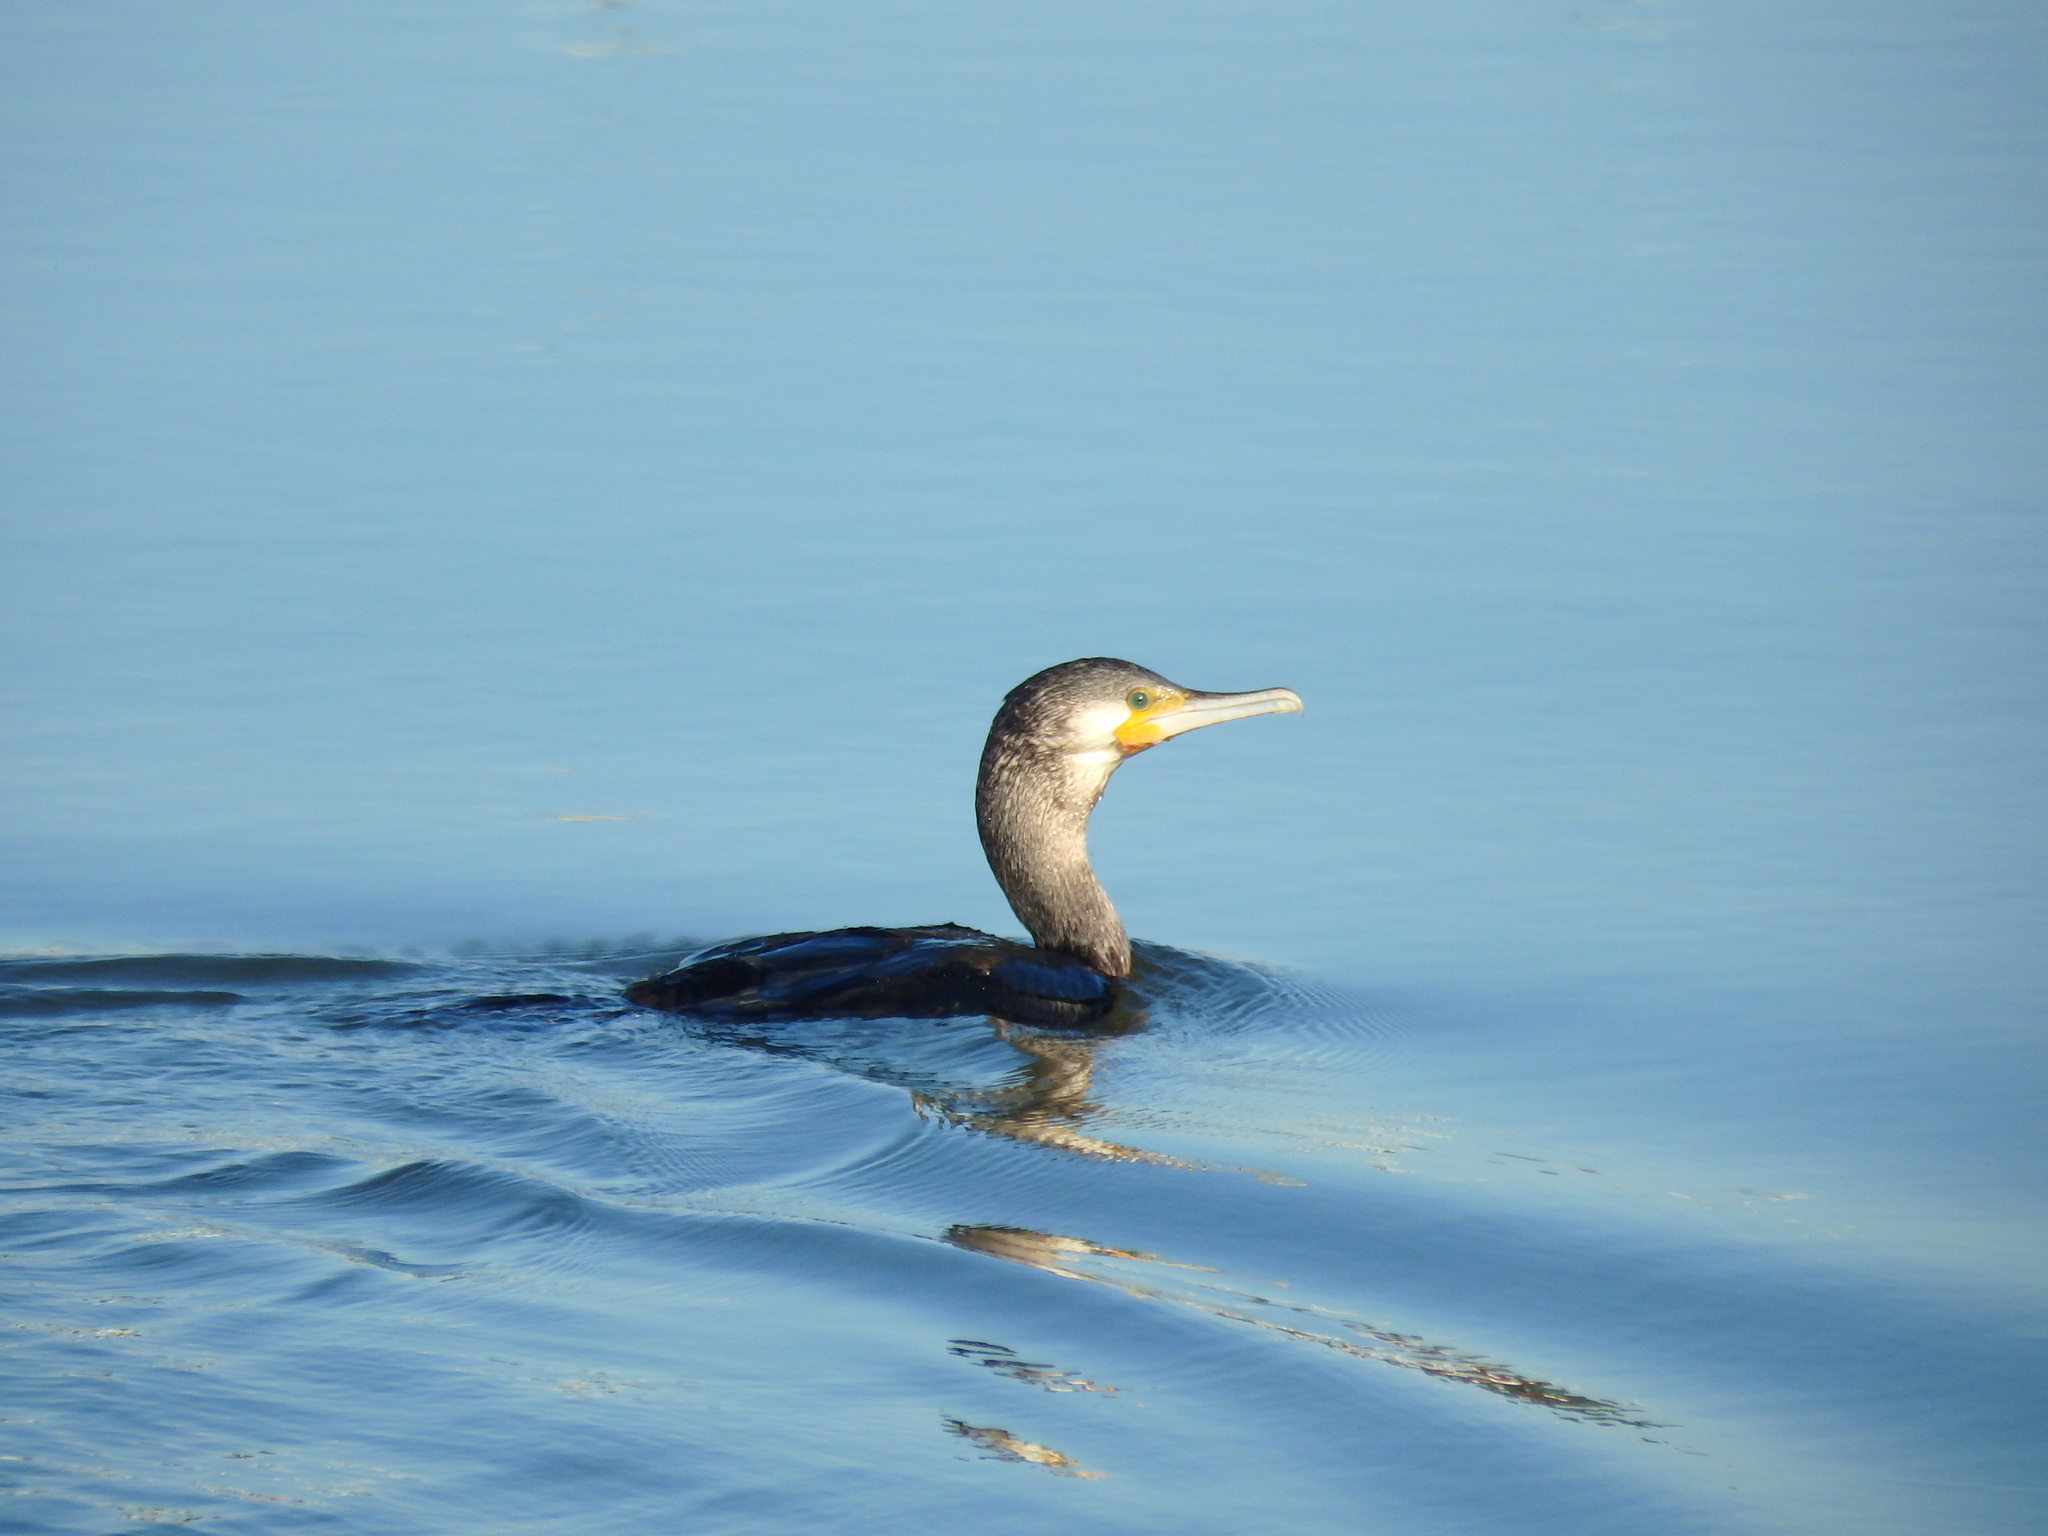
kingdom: Animalia
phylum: Chordata
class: Aves
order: Suliformes
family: Phalacrocoracidae
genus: Phalacrocorax
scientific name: Phalacrocorax carbo
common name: Great cormorant
